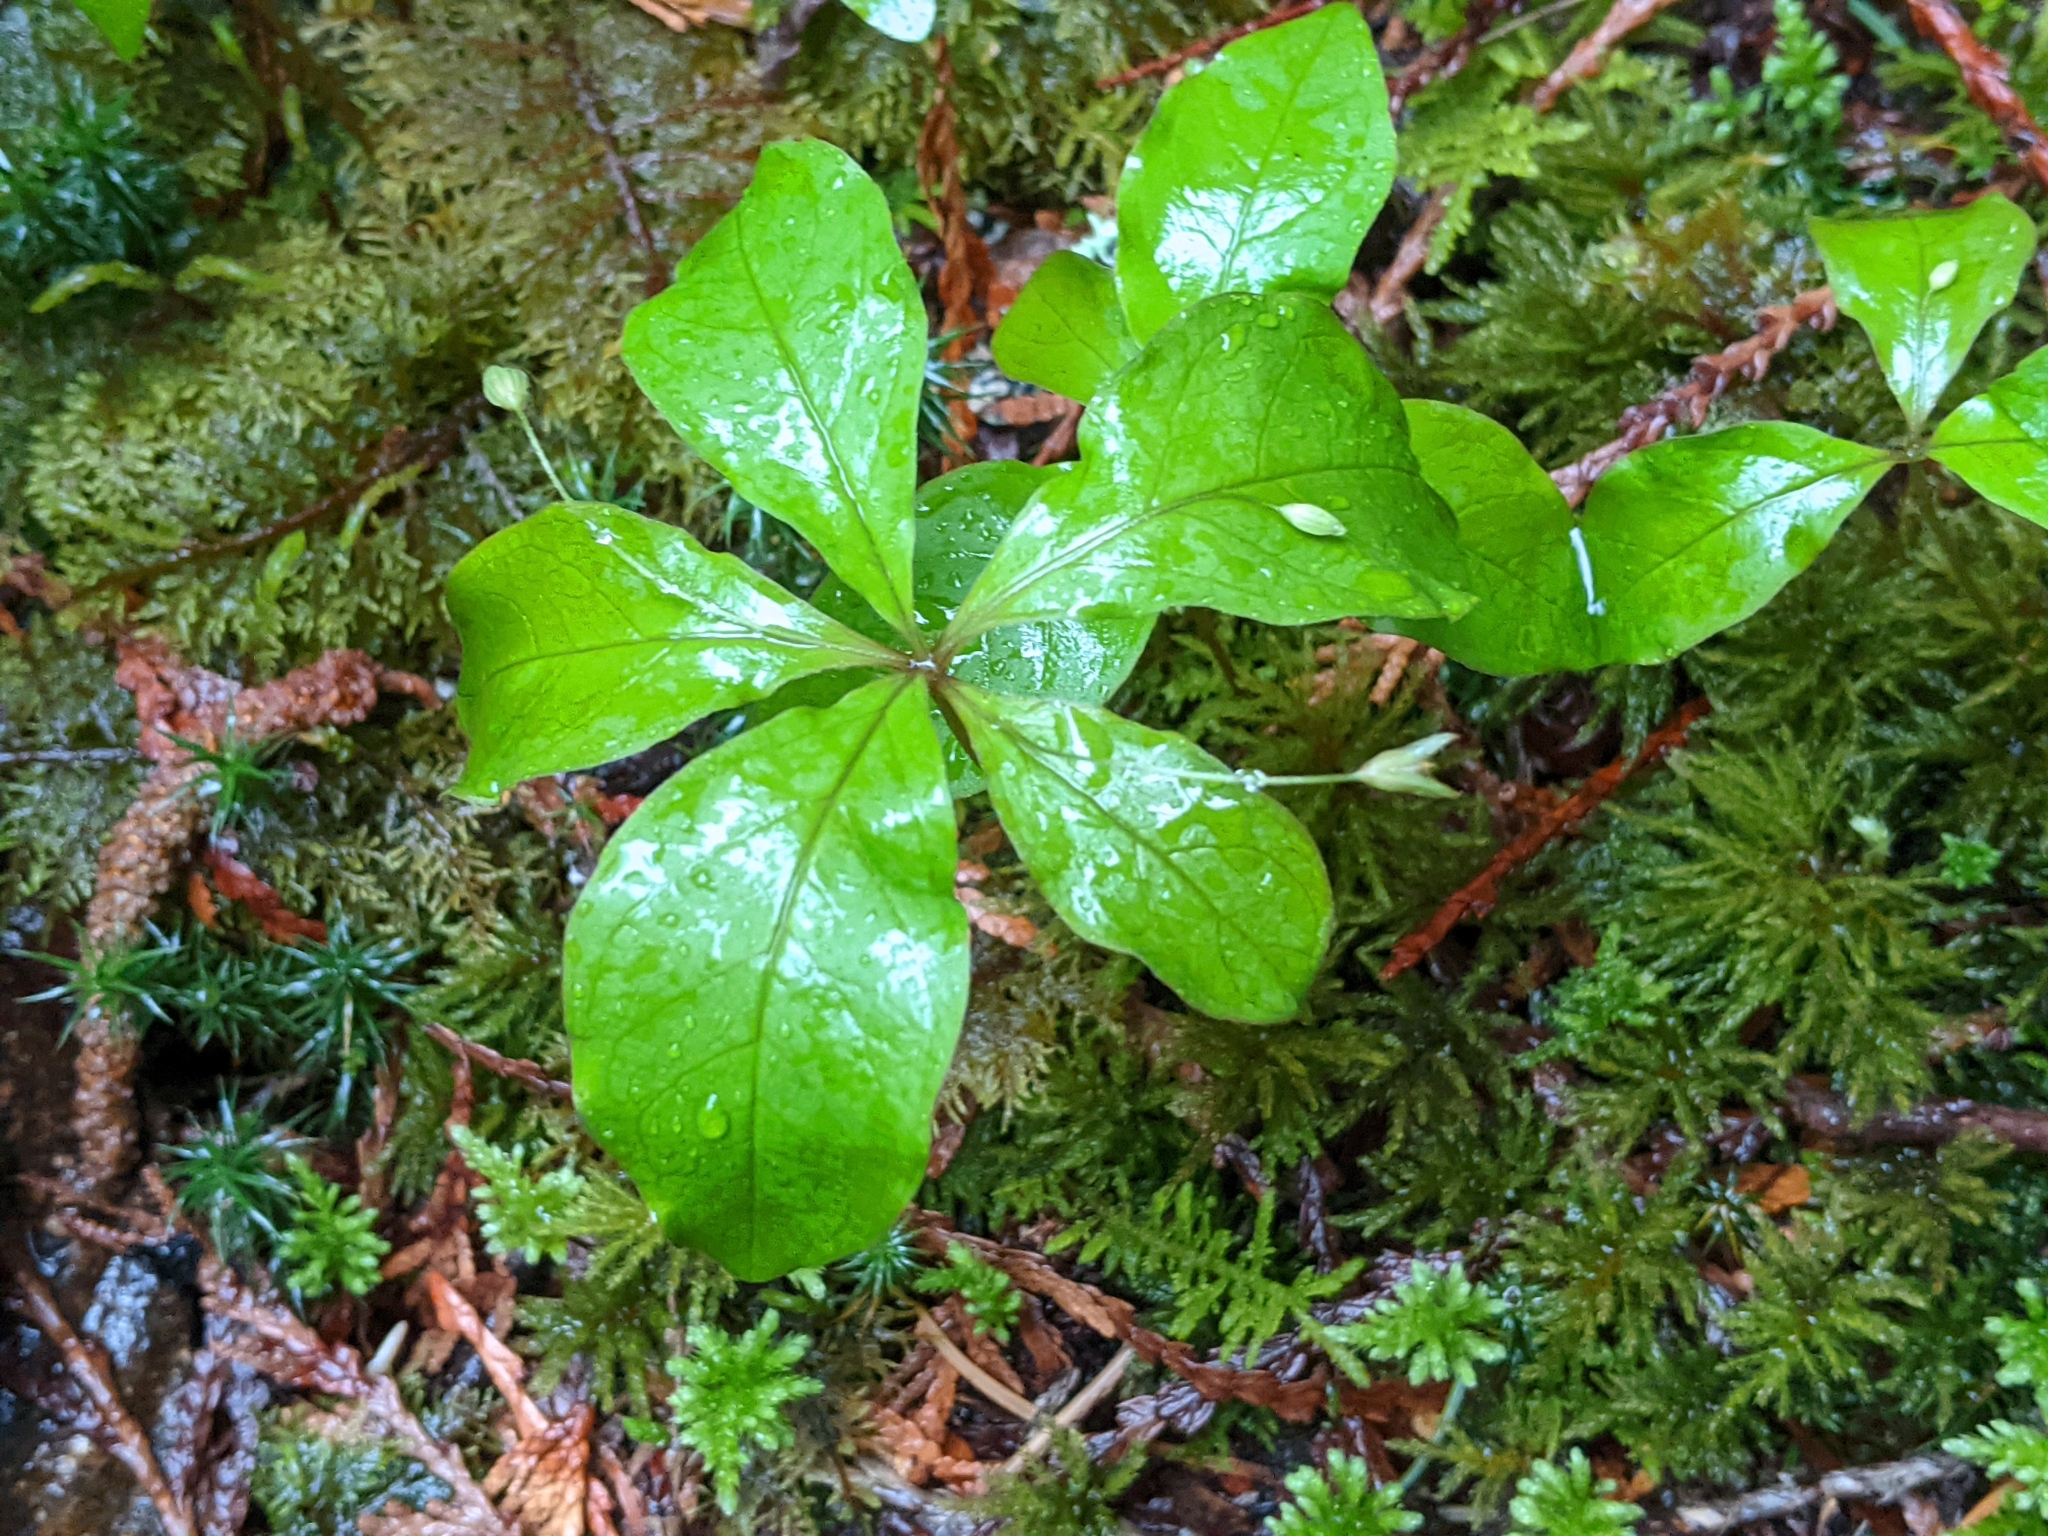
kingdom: Plantae
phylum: Tracheophyta
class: Magnoliopsida
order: Ericales
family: Primulaceae
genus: Lysimachia
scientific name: Lysimachia latifolia
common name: Pacific starflower
